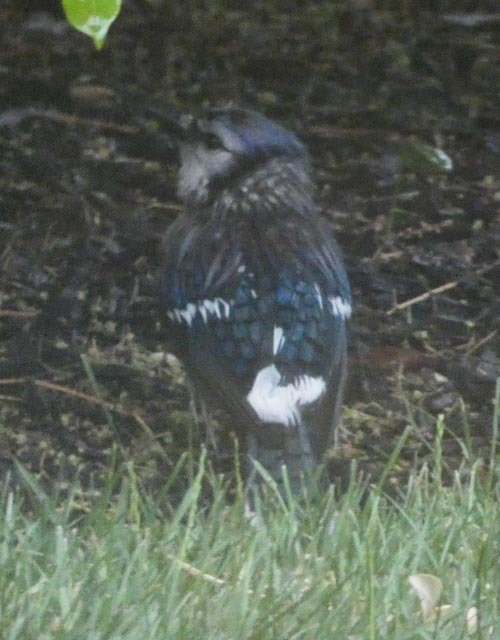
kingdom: Animalia
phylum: Chordata
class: Aves
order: Passeriformes
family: Corvidae
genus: Cyanocitta
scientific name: Cyanocitta cristata
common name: Blue jay
